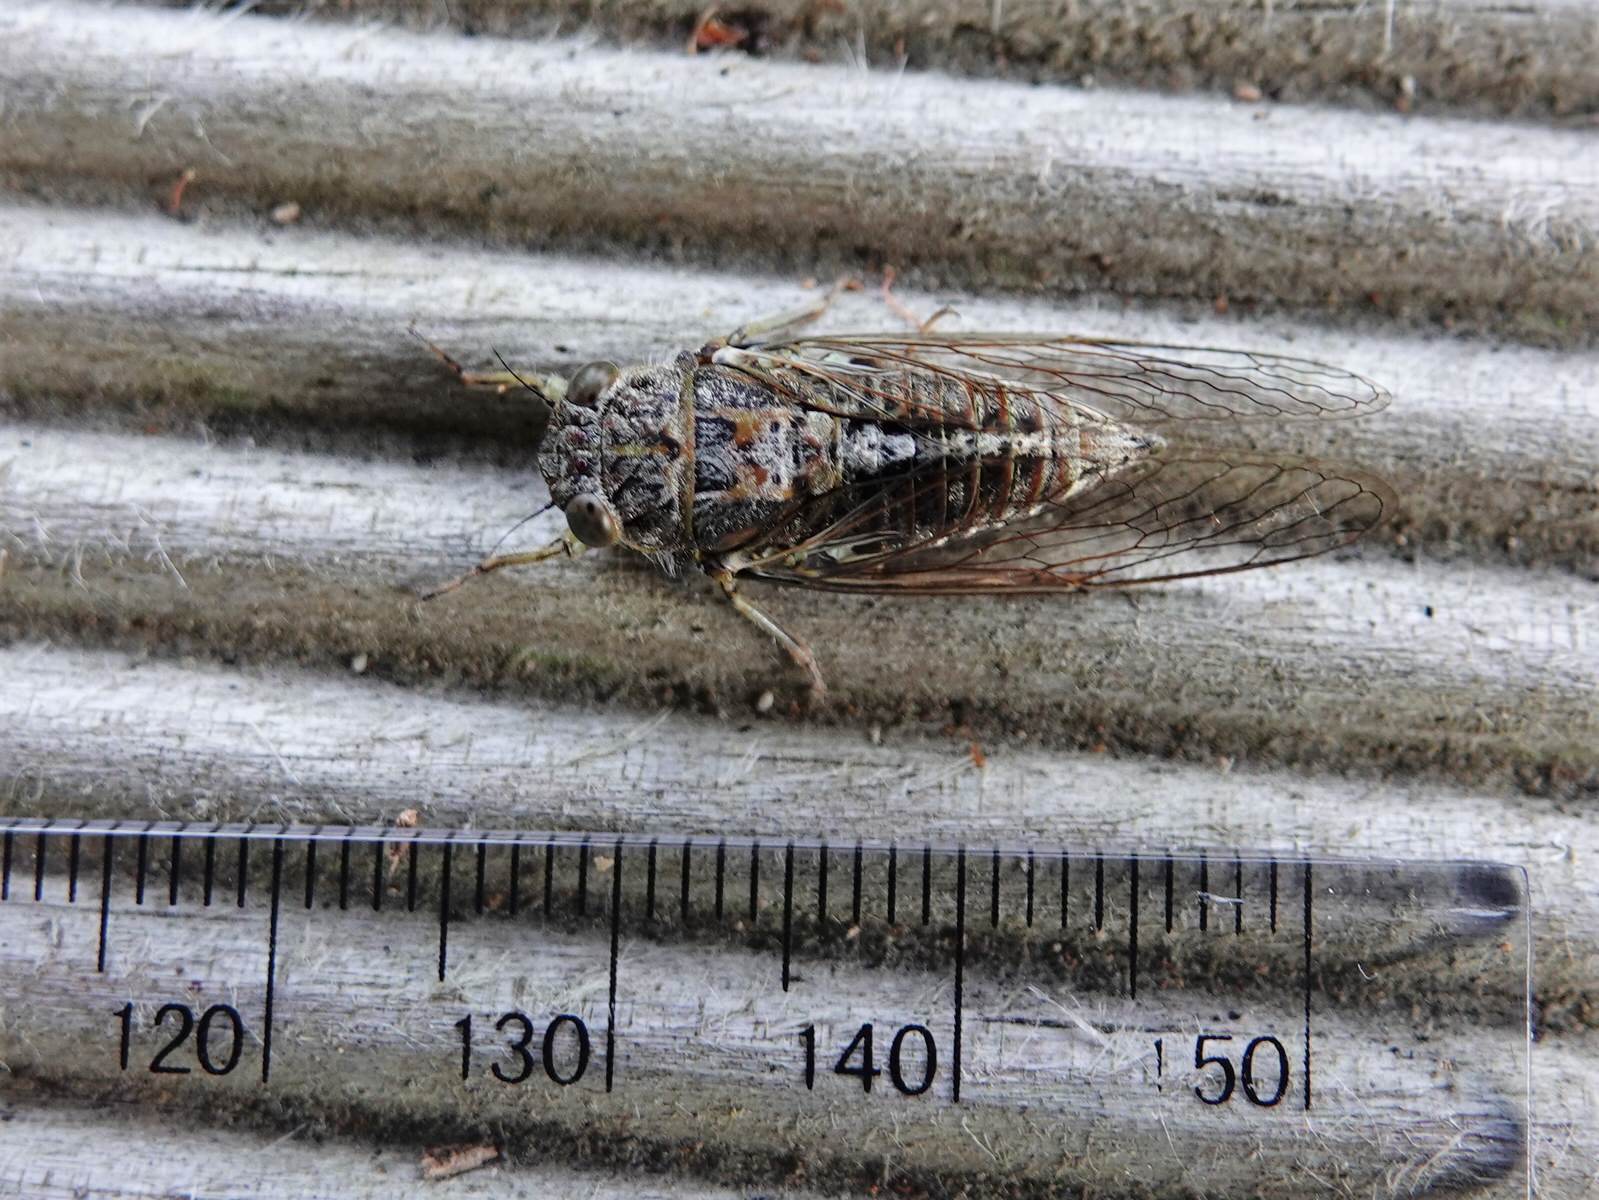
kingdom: Animalia
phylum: Arthropoda
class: Insecta
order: Hemiptera
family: Cicadidae
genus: Notopsalta
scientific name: Notopsalta sericea
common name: Clay bank cicada
